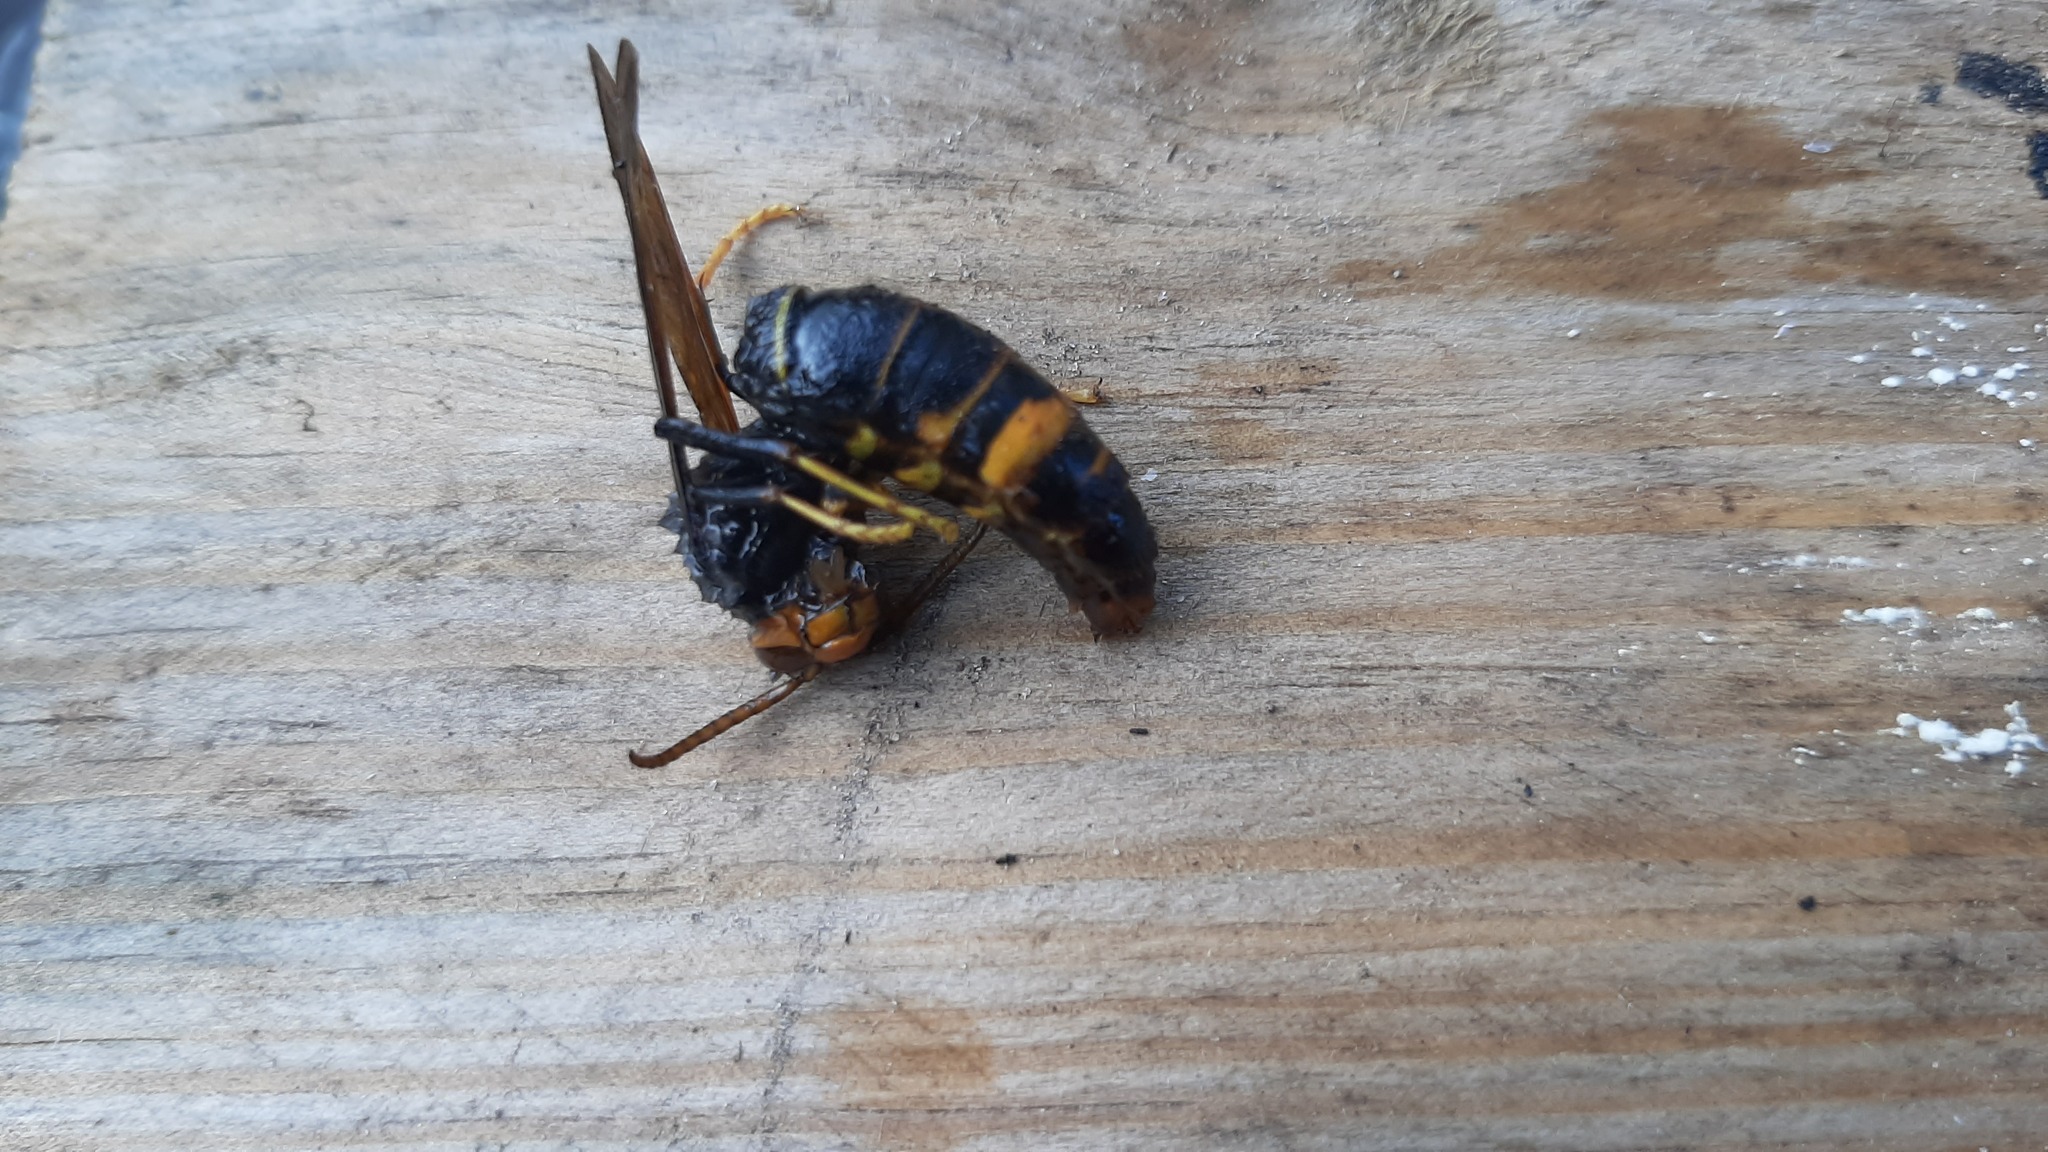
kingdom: Animalia
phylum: Arthropoda
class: Insecta
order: Hymenoptera
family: Vespidae
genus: Vespa
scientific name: Vespa velutina
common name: Asian hornet
